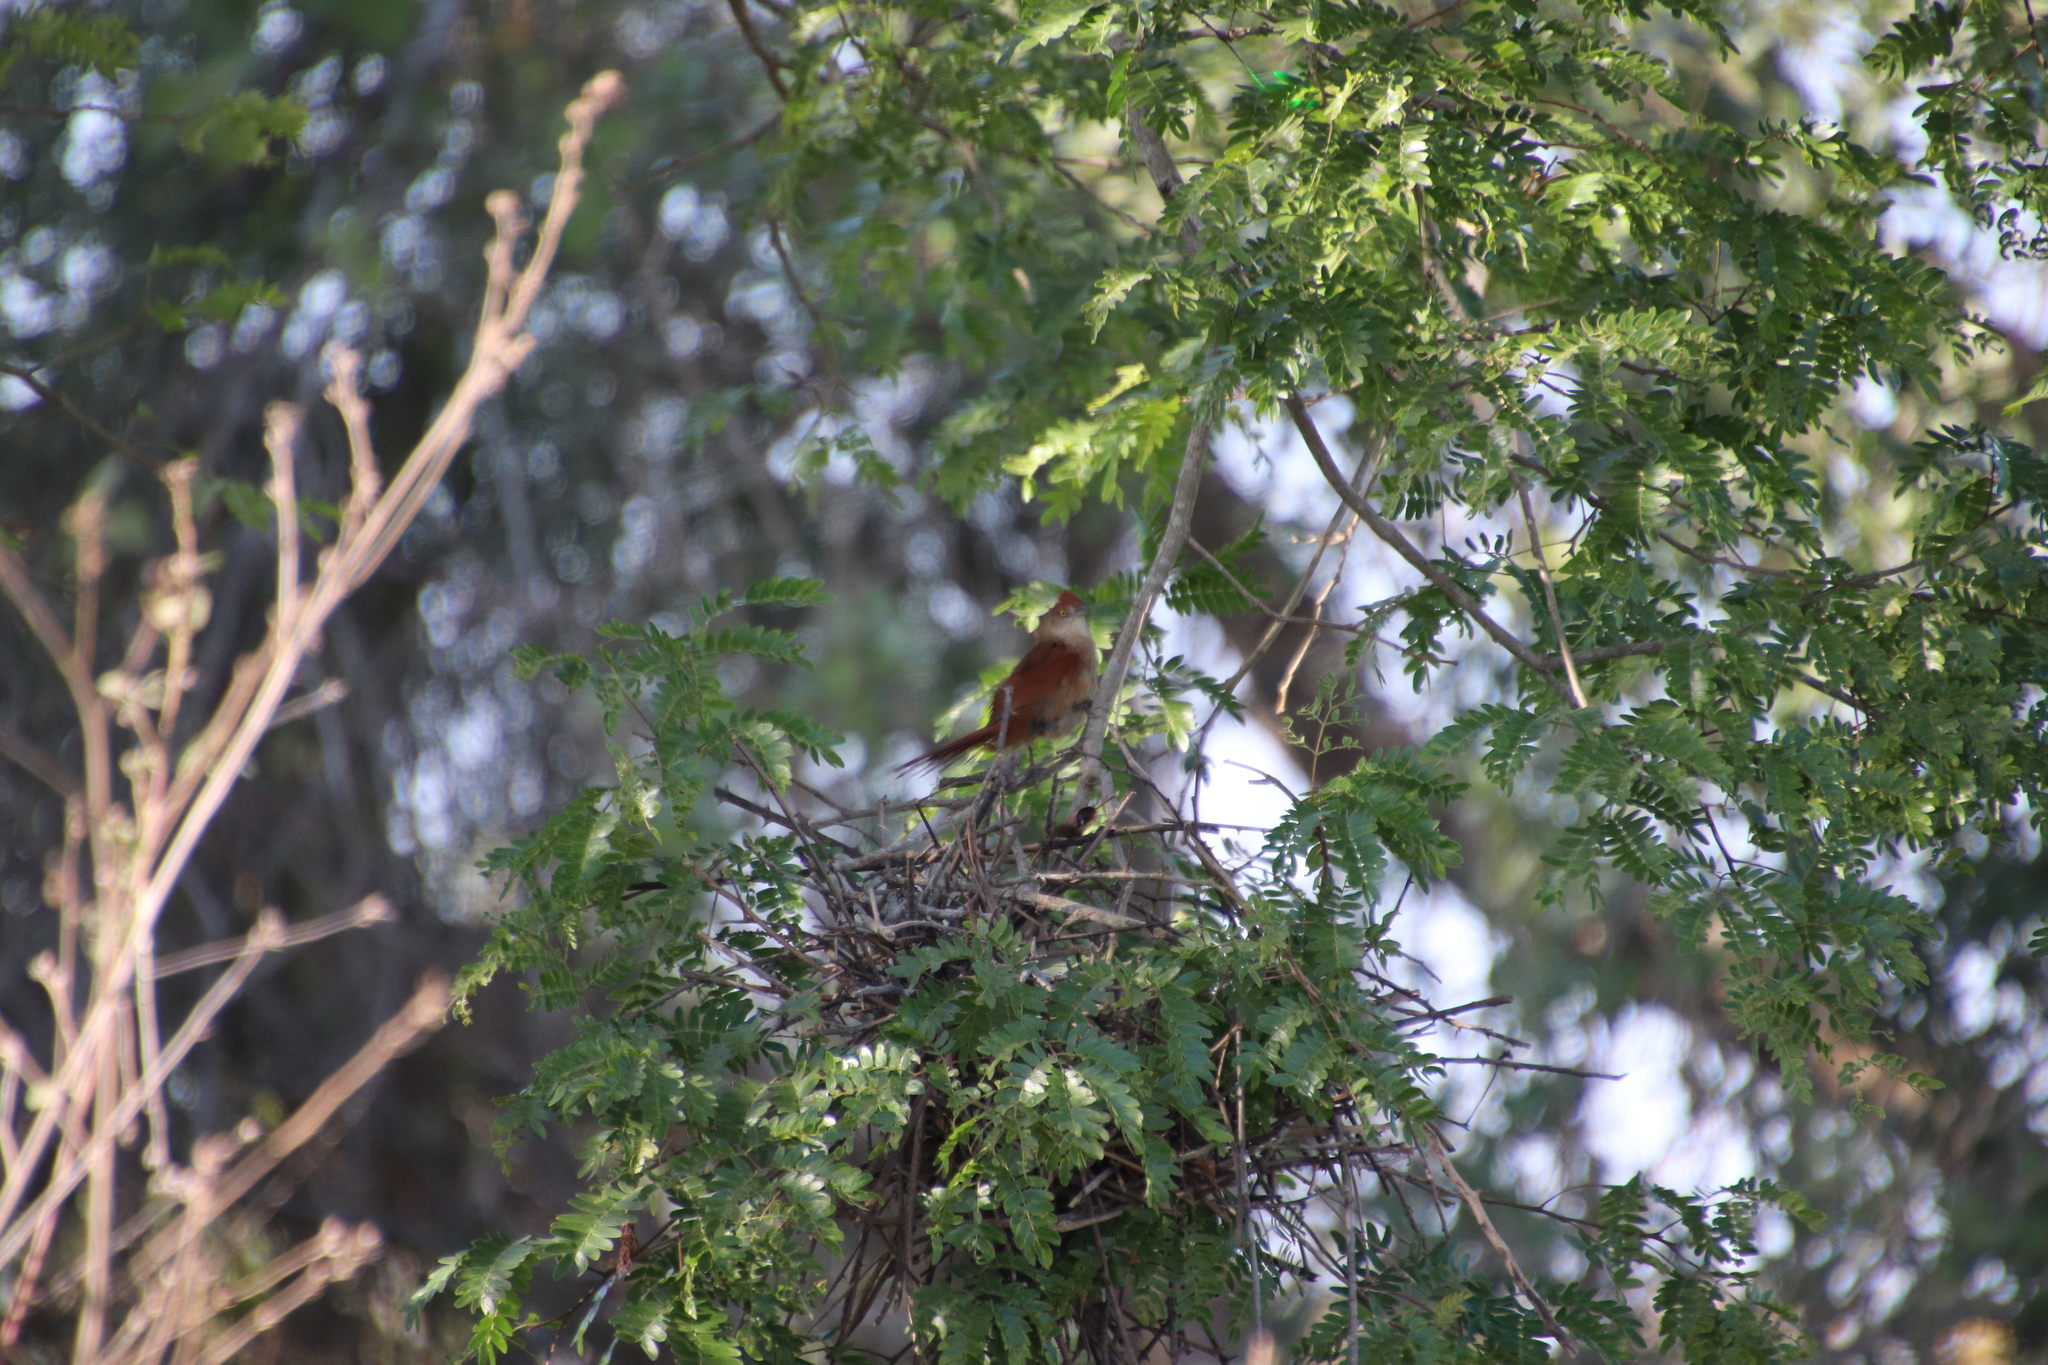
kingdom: Animalia
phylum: Chordata
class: Aves
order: Passeriformes
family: Furnariidae
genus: Phacellodomus
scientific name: Phacellodomus ruber
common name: Greater thornbird
